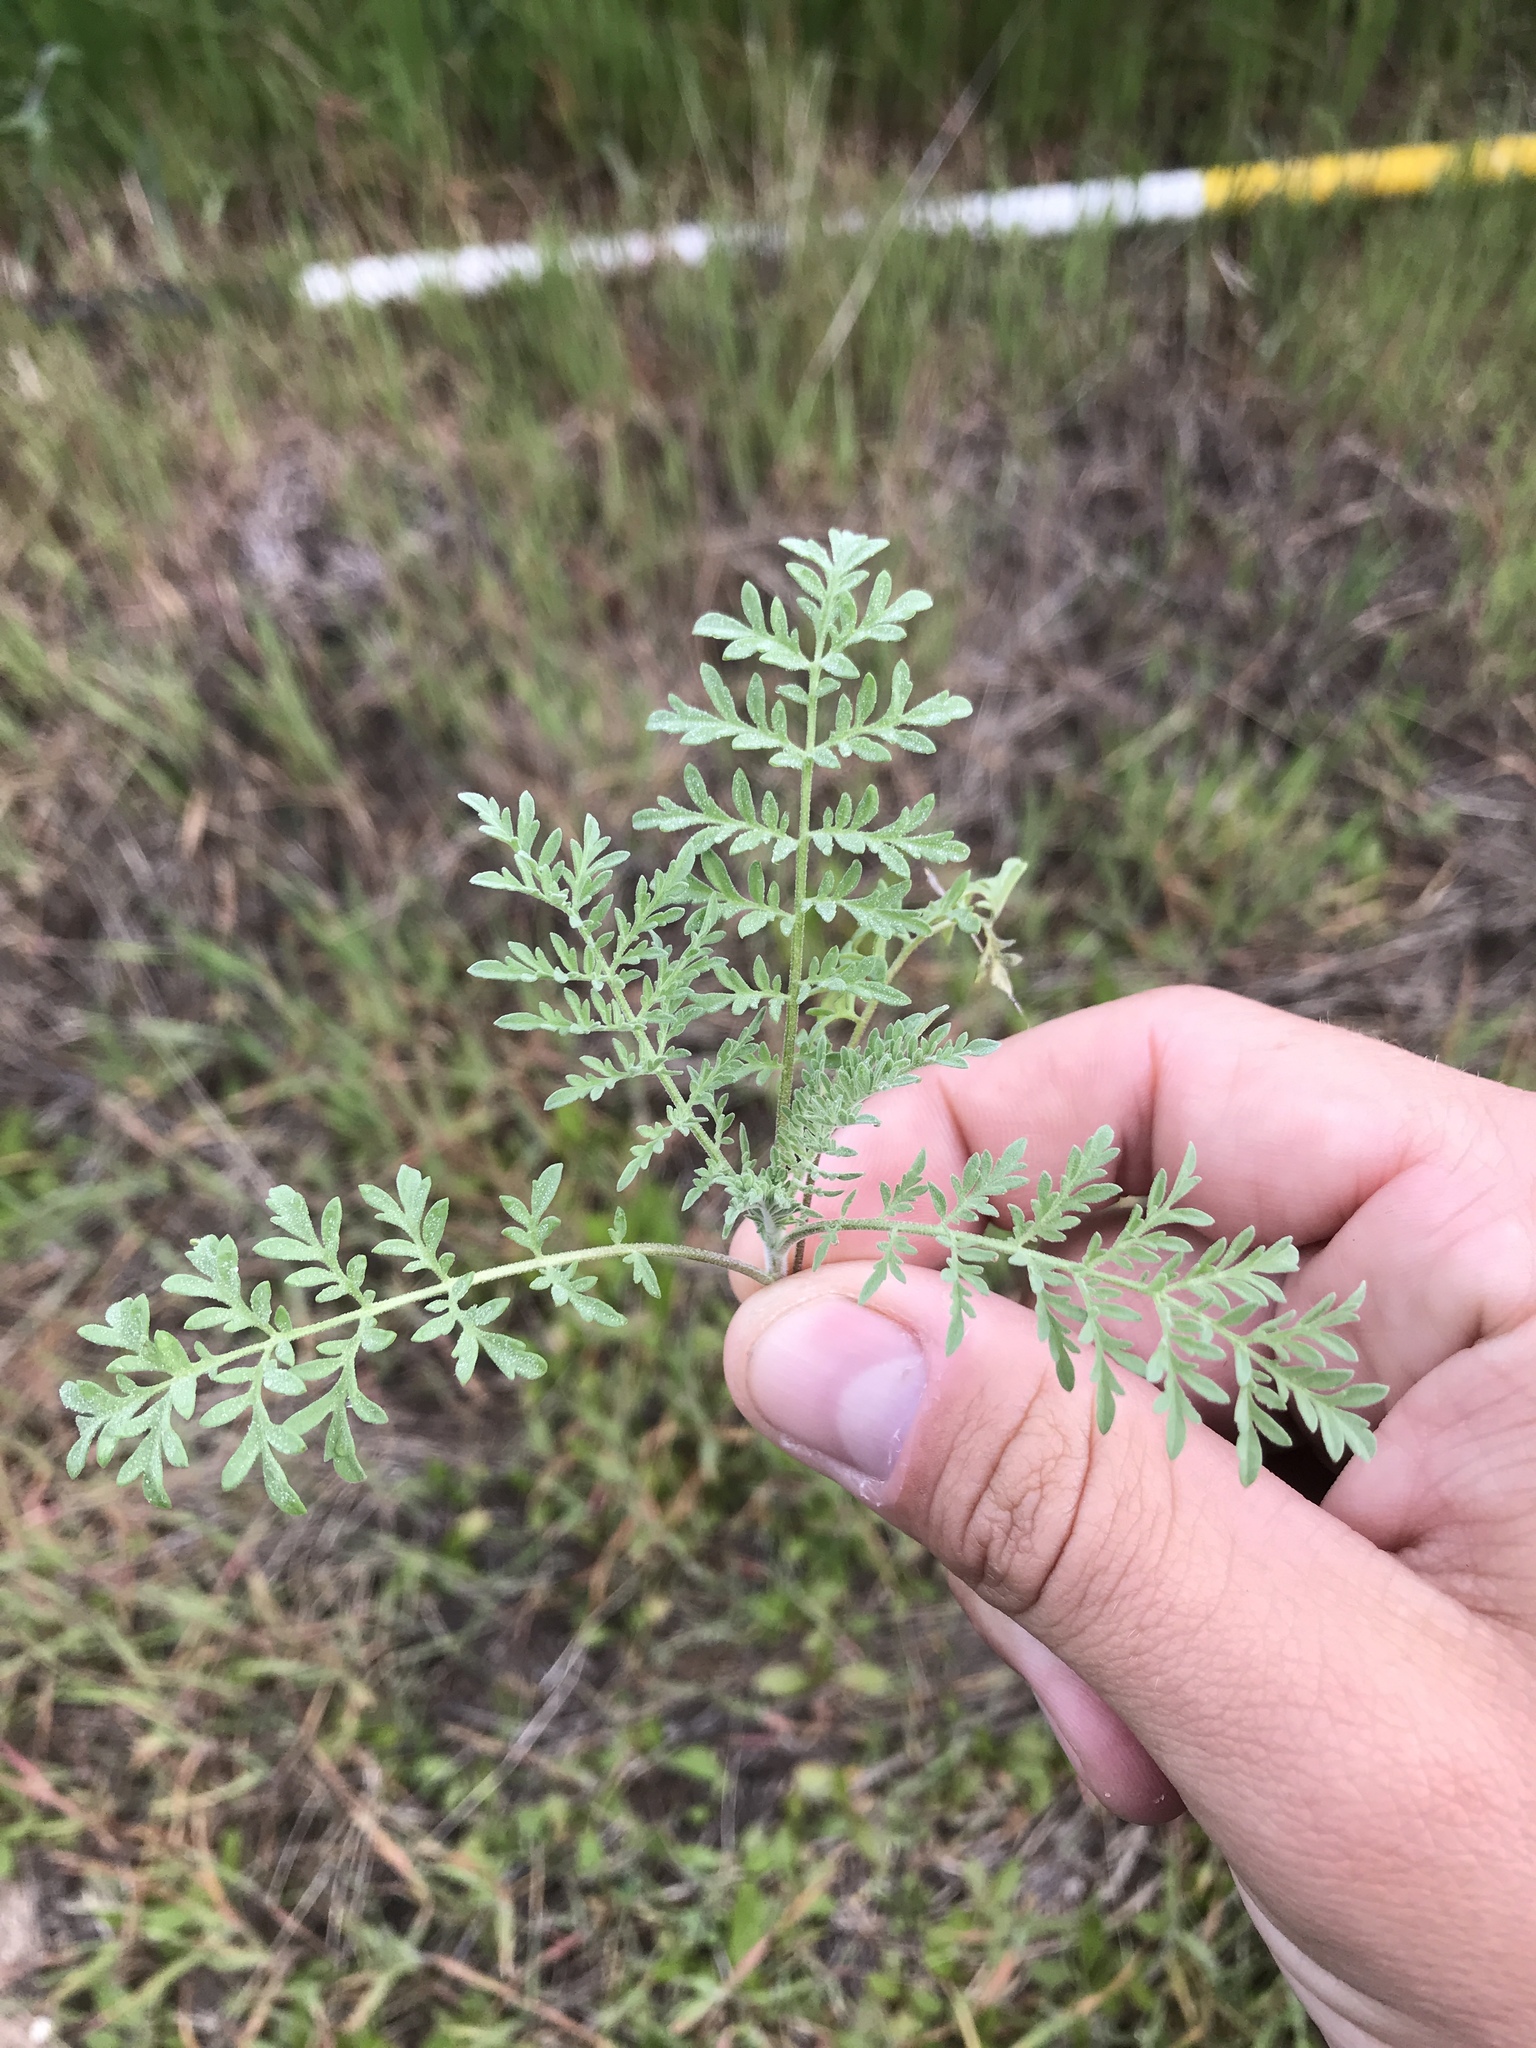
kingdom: Plantae
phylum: Tracheophyta
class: Magnoliopsida
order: Brassicales
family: Brassicaceae
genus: Descurainia
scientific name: Descurainia pinnata
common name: Western tansy mustard
